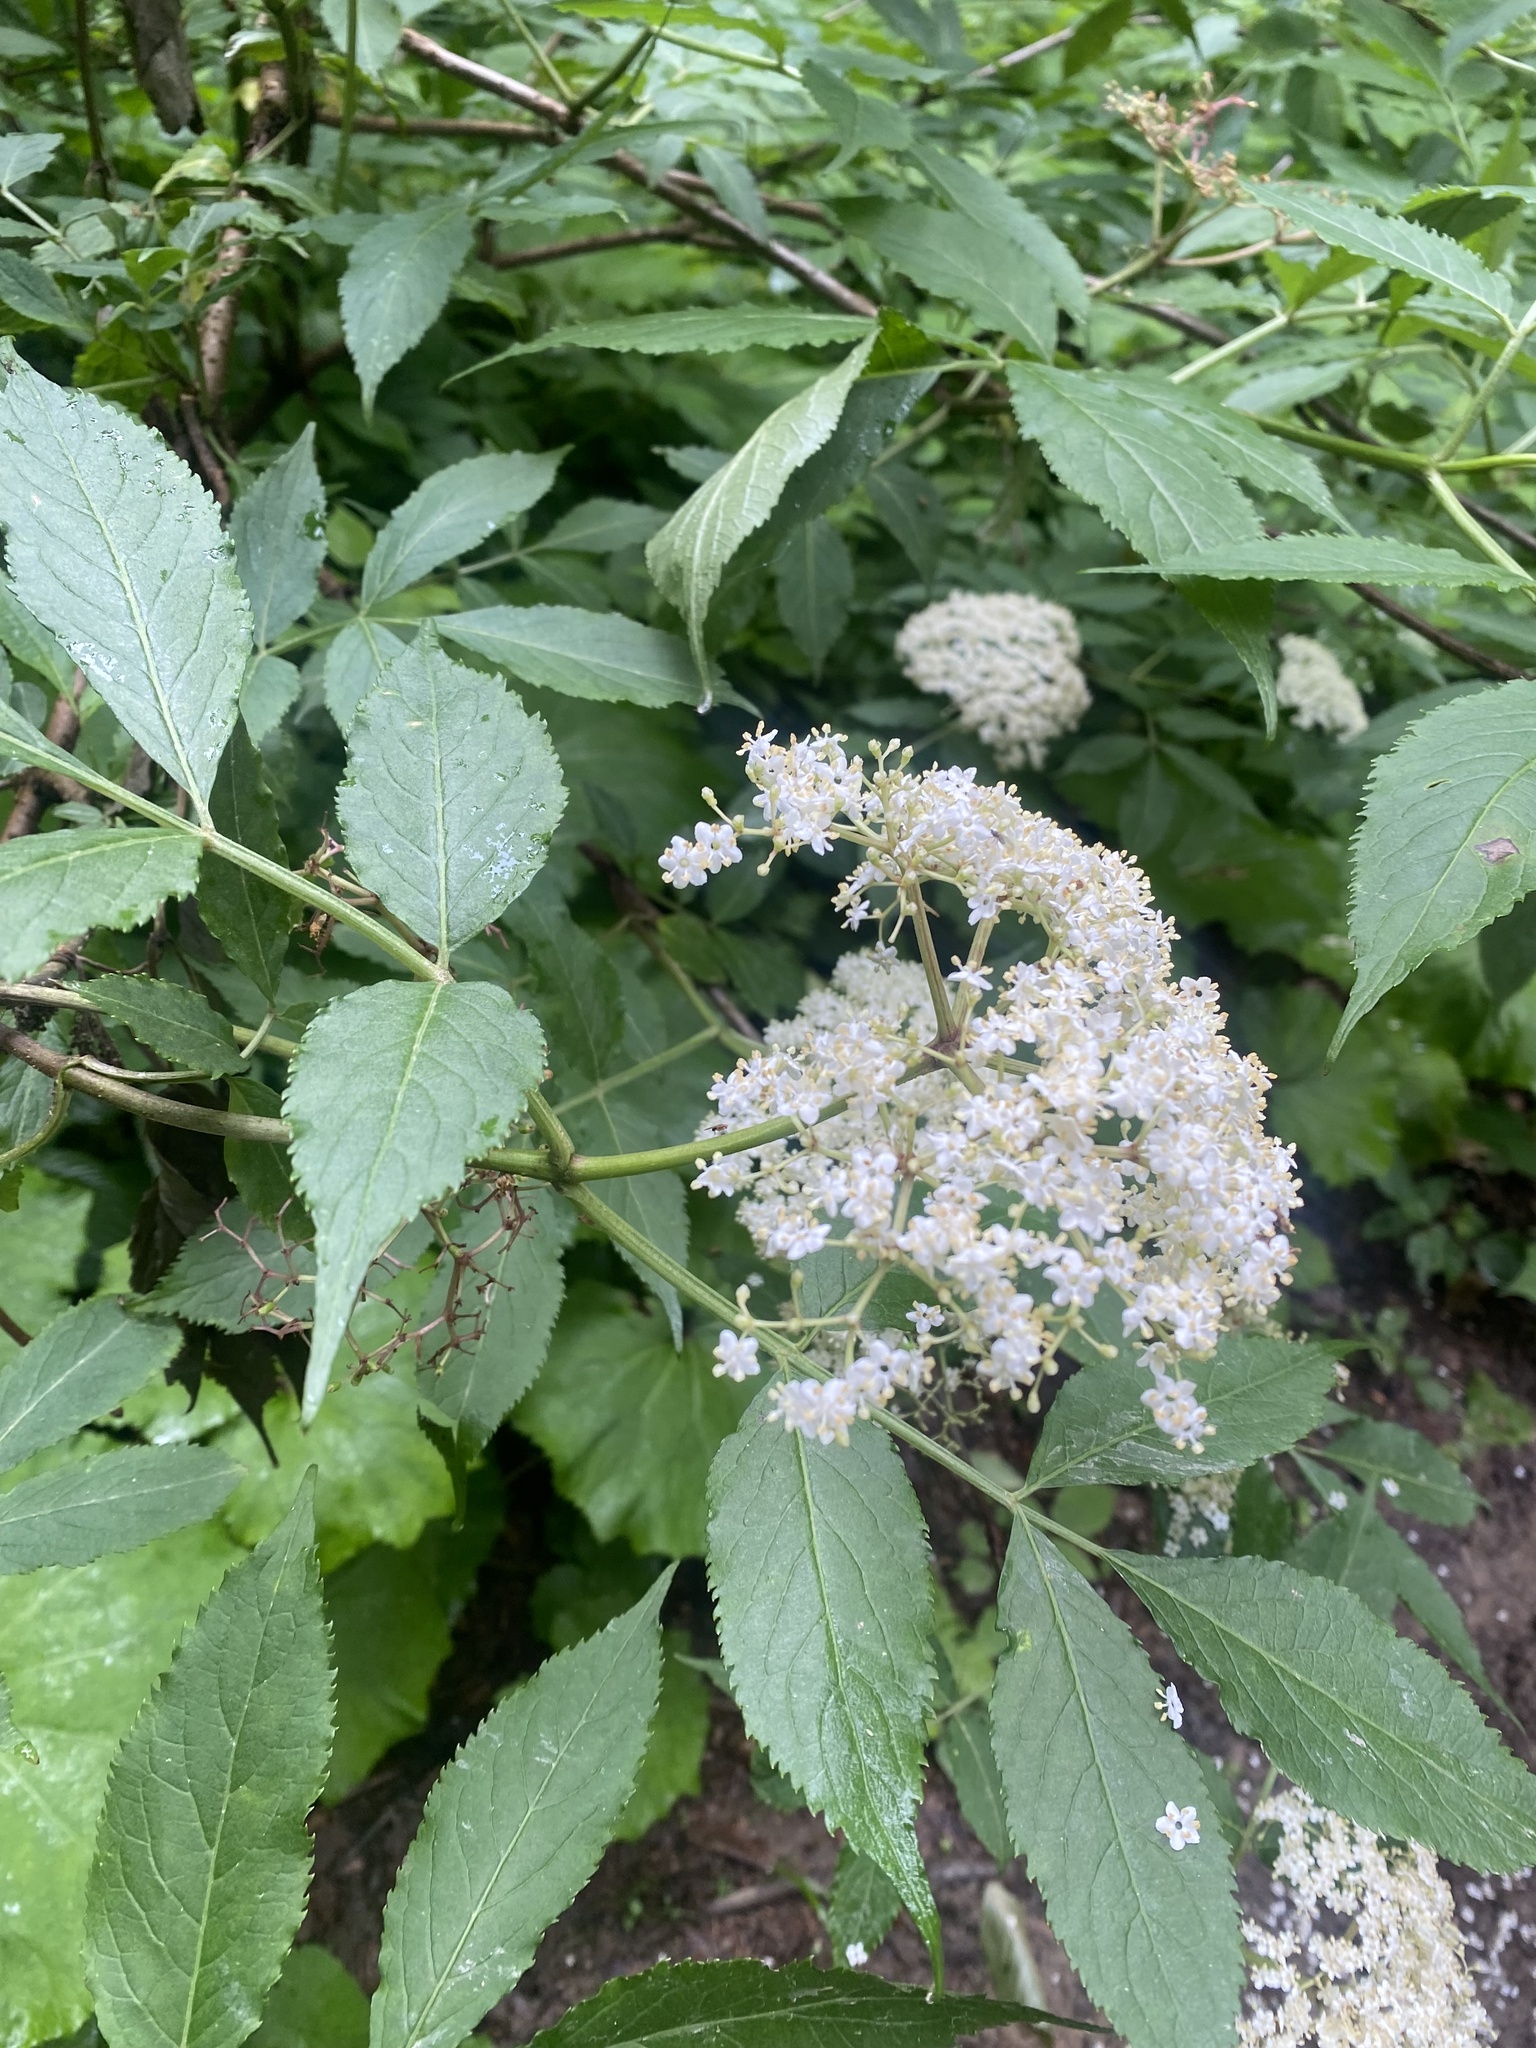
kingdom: Plantae
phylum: Tracheophyta
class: Magnoliopsida
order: Dipsacales
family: Viburnaceae
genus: Sambucus
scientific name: Sambucus nigra
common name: Elder
